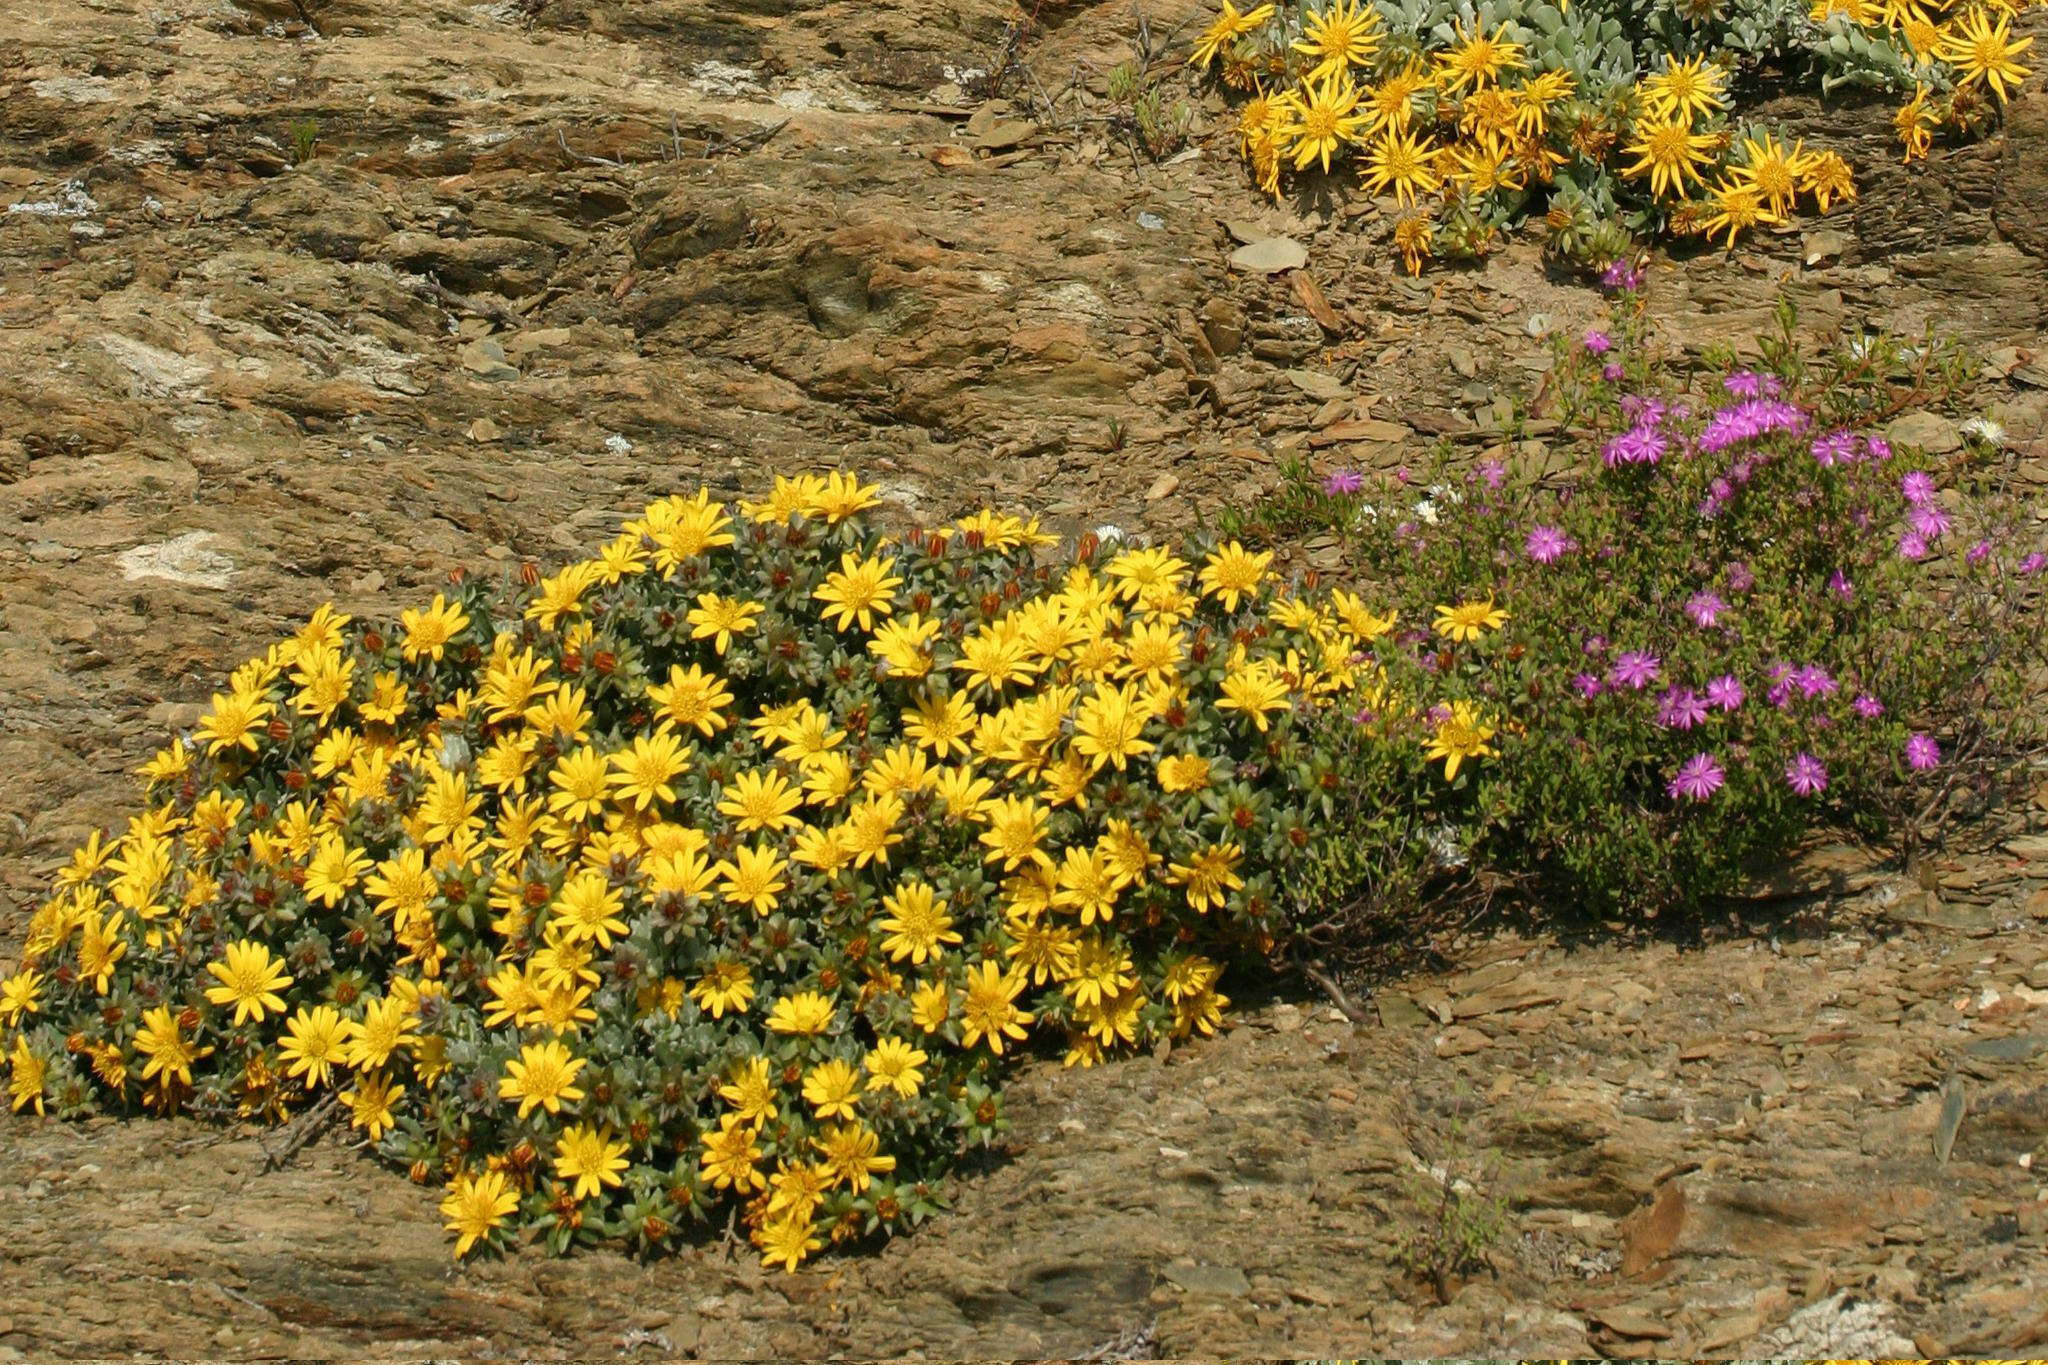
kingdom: Plantae
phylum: Tracheophyta
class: Magnoliopsida
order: Asterales
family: Asteraceae
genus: Berkheya
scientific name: Berkheya cuneata
